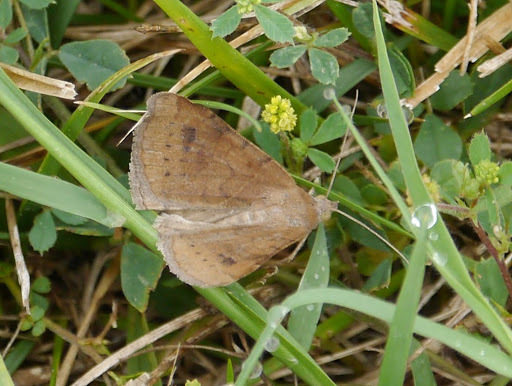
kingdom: Animalia
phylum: Arthropoda
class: Insecta
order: Lepidoptera
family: Erebidae
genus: Caenurgia
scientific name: Caenurgia chloropha
